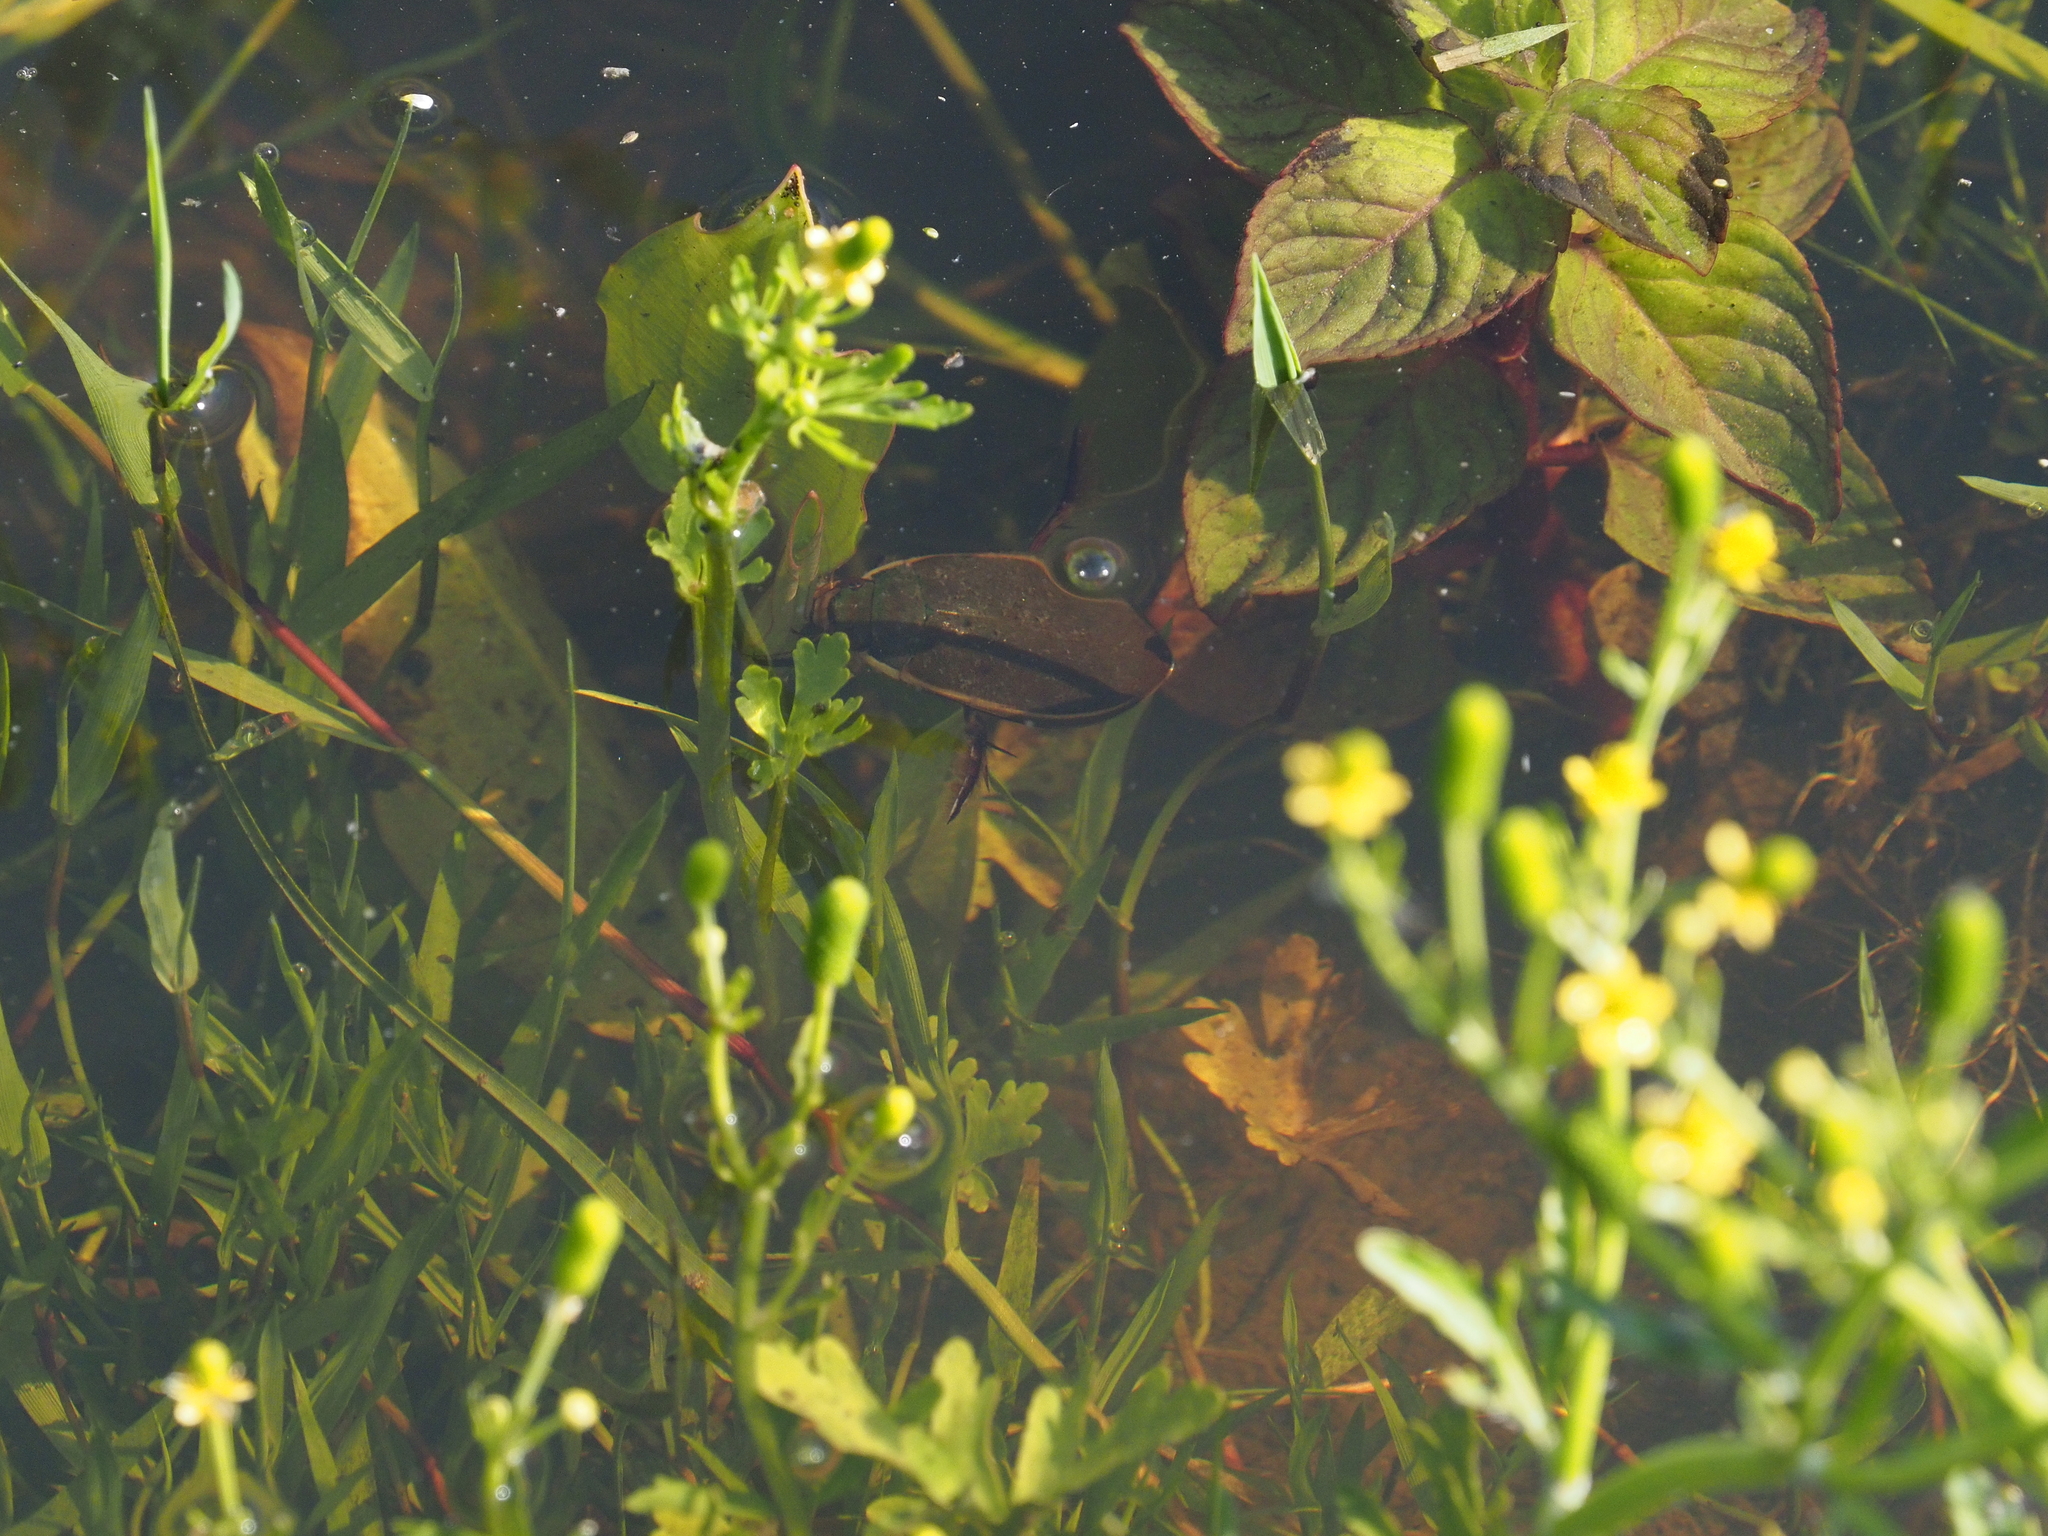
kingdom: Animalia
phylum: Arthropoda
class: Insecta
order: Coleoptera
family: Dytiscidae
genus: Cybister
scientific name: Cybister lateralimarginalis
